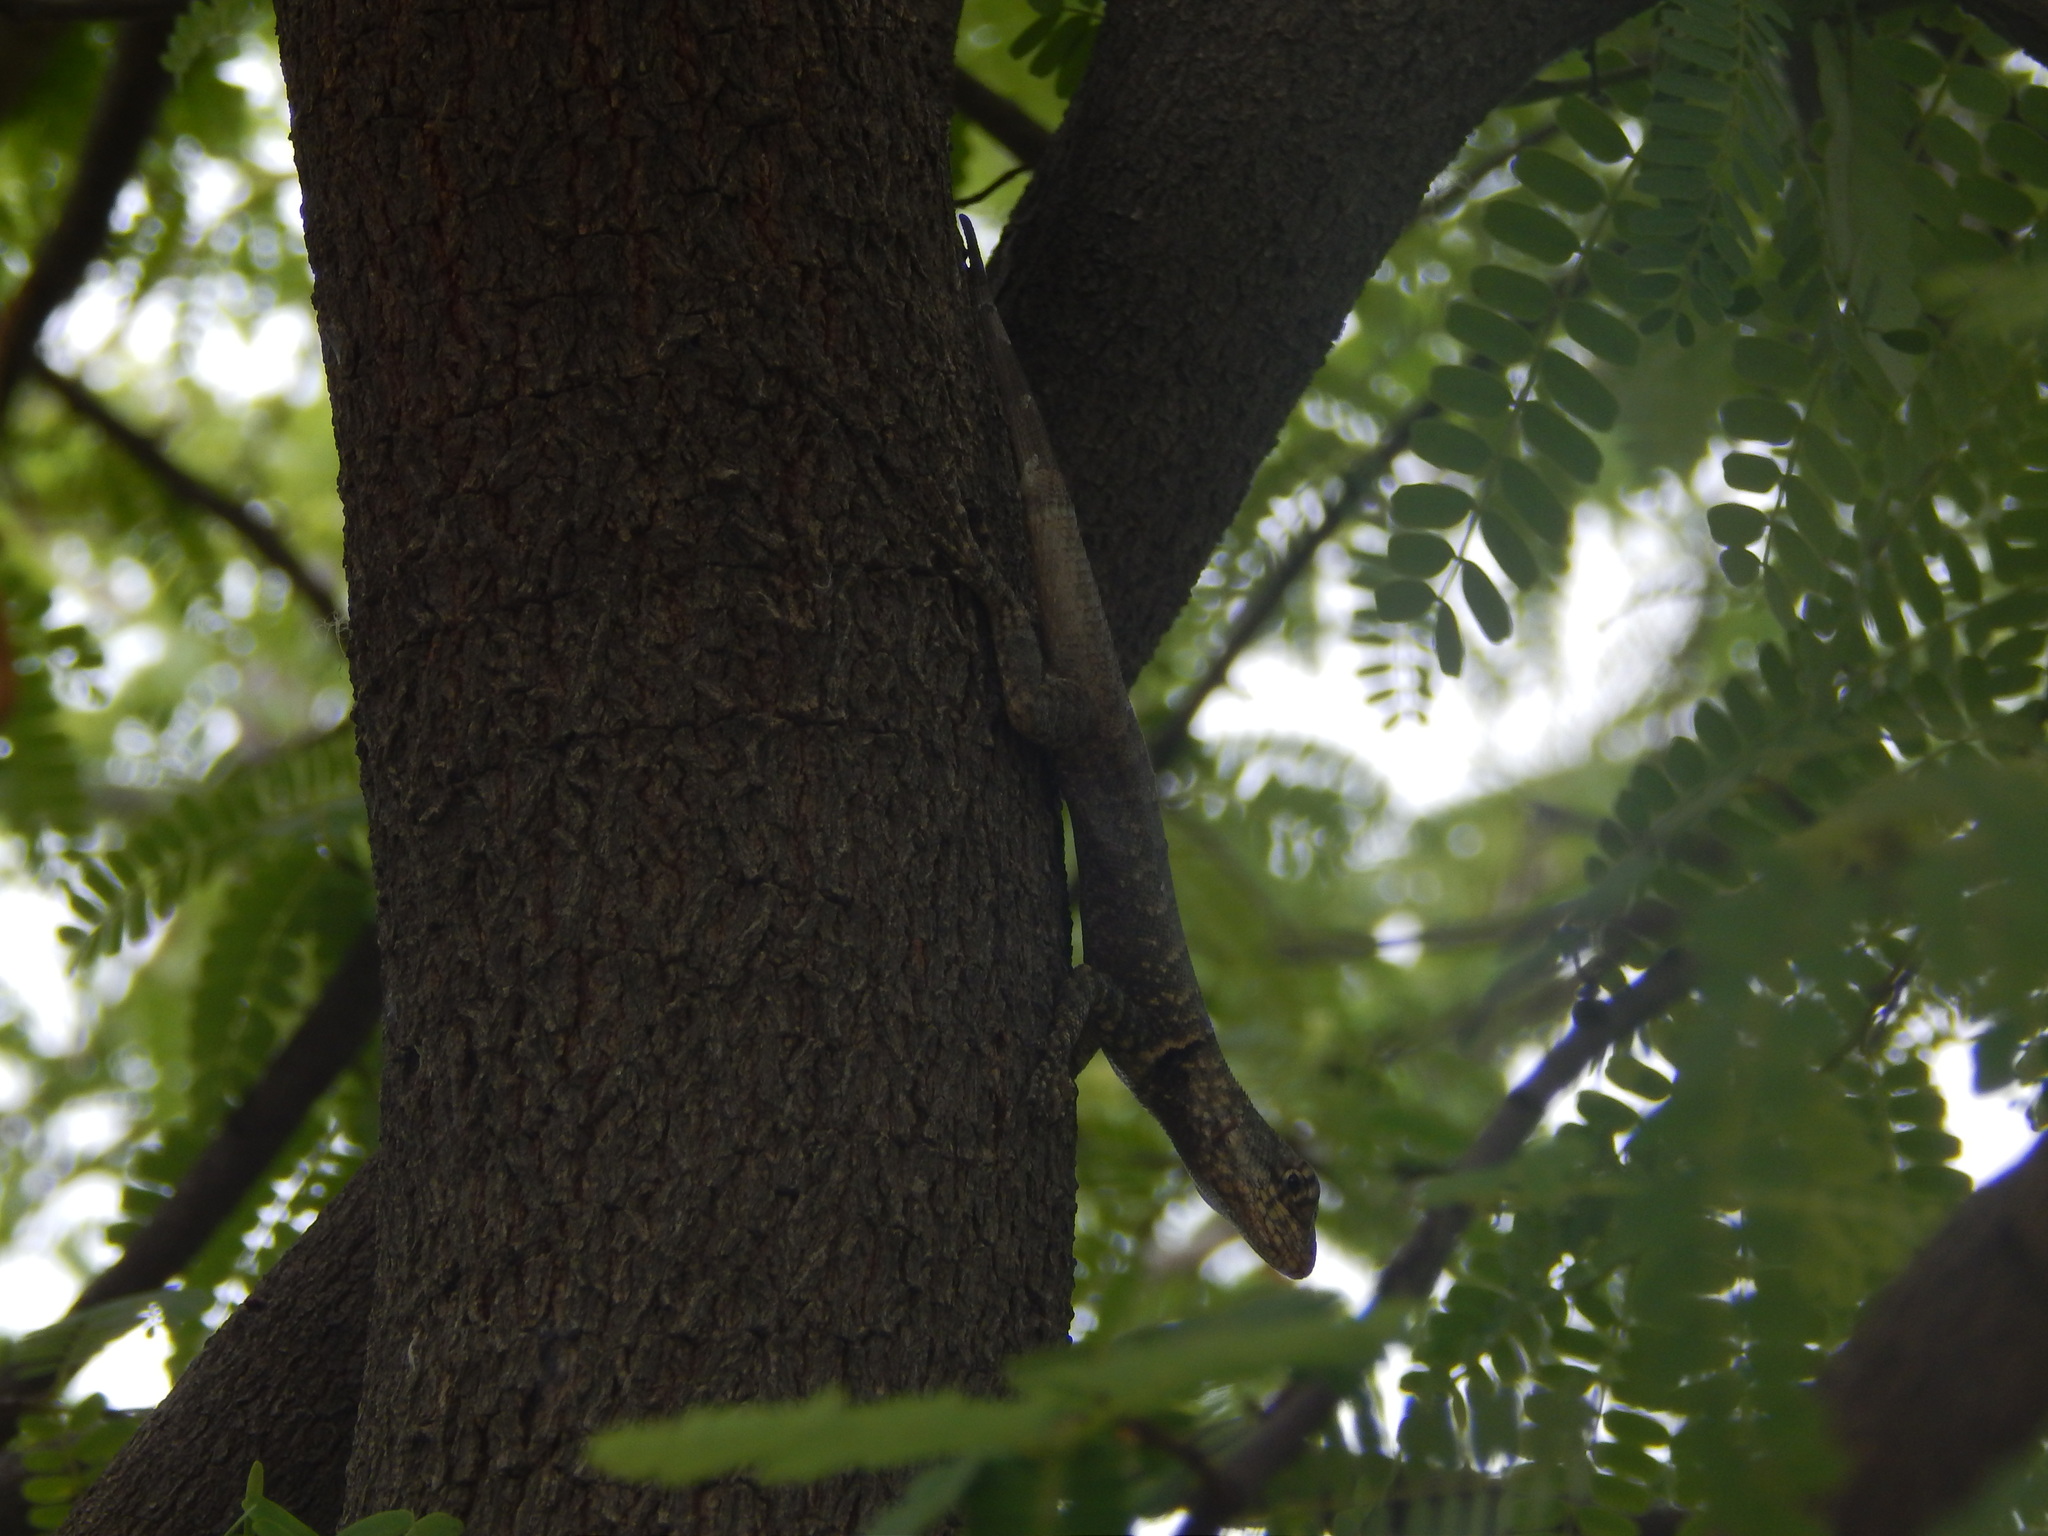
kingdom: Animalia
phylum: Chordata
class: Squamata
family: Tropiduridae
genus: Tropidurus
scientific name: Tropidurus hispidus
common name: Peters' lava lizard
